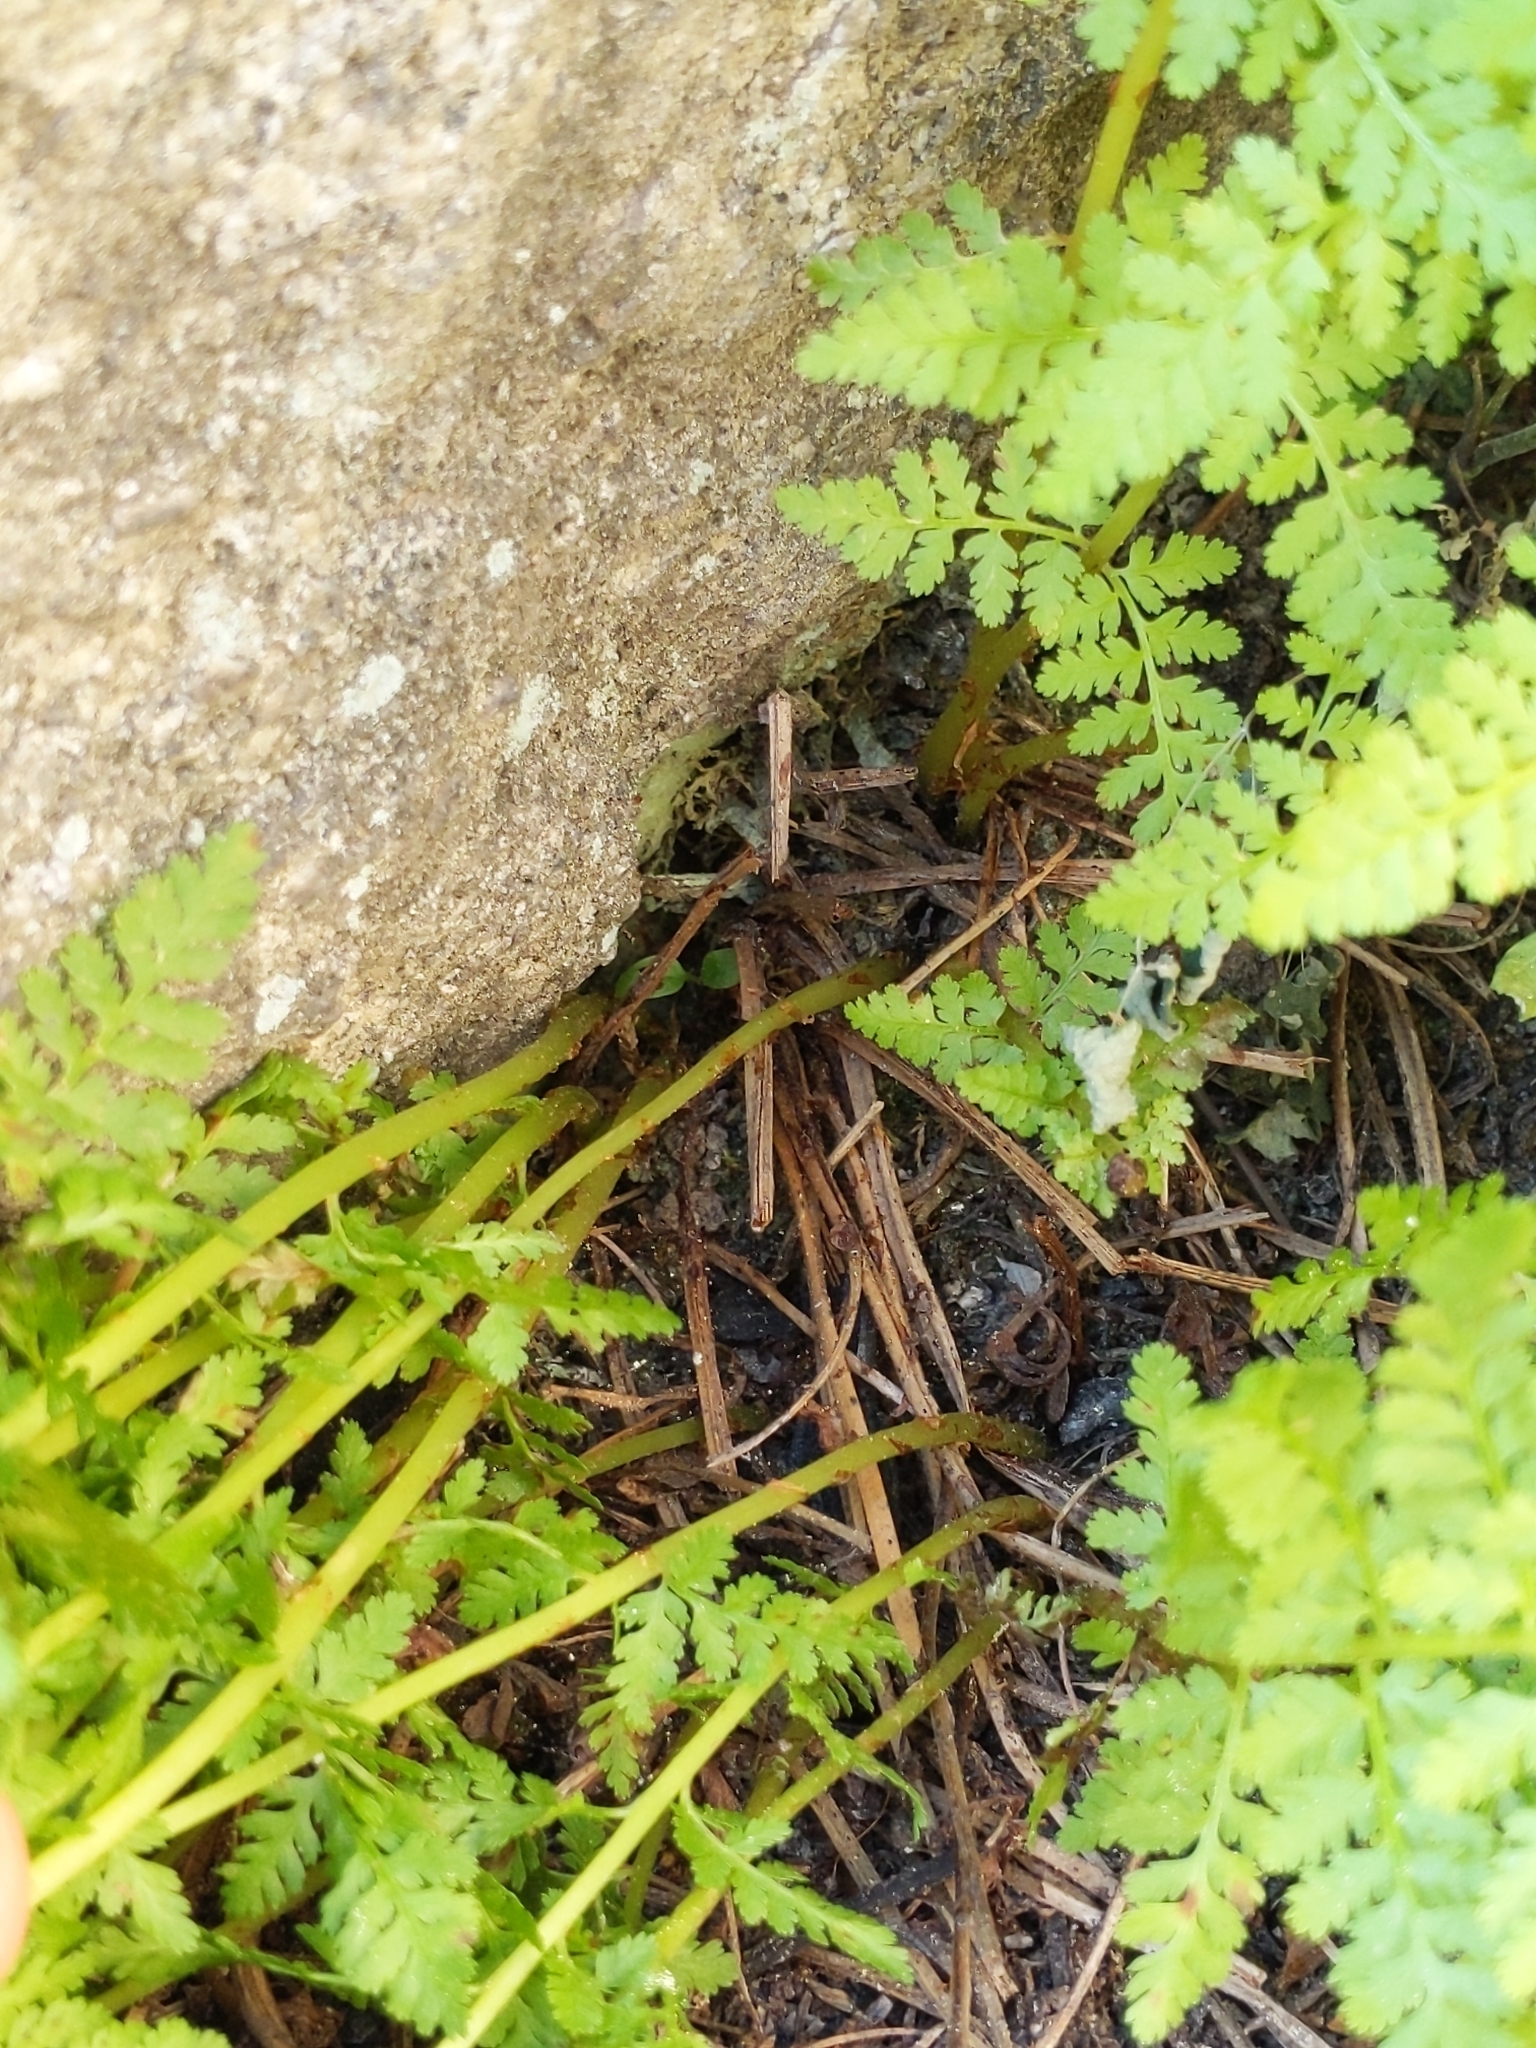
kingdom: Plantae
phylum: Tracheophyta
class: Polypodiopsida
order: Polypodiales
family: Athyriaceae
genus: Athyrium
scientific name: Athyrium americanum
